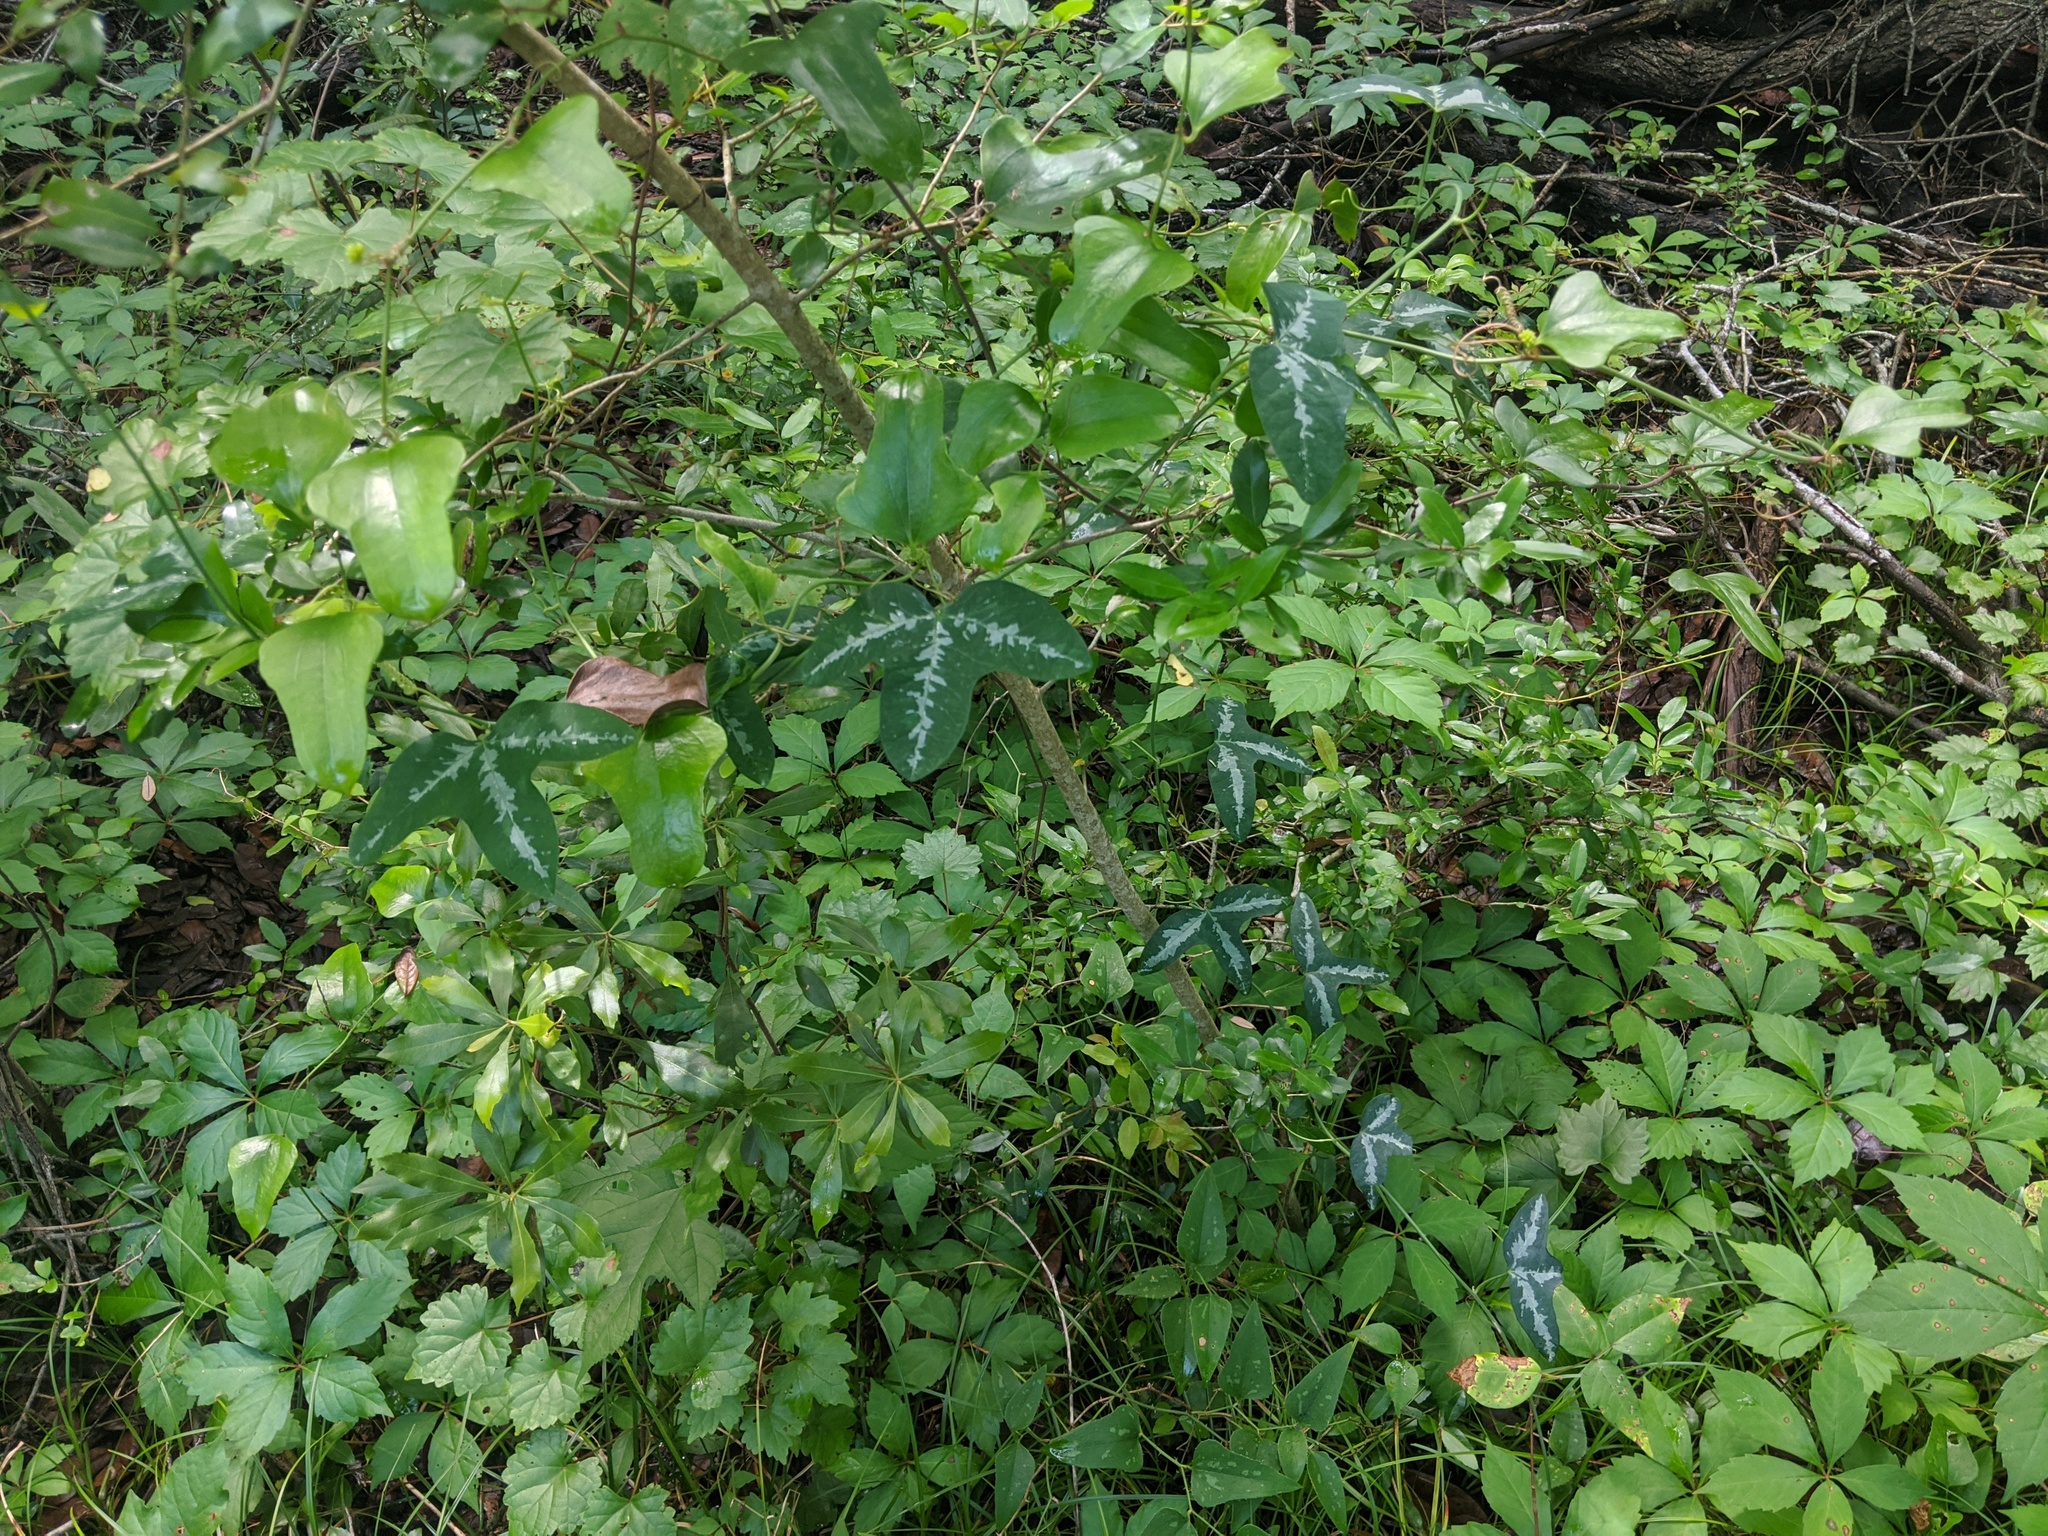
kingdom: Plantae
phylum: Tracheophyta
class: Magnoliopsida
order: Malpighiales
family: Passifloraceae
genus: Passiflora
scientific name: Passiflora lutea
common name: Yellow passionflower
